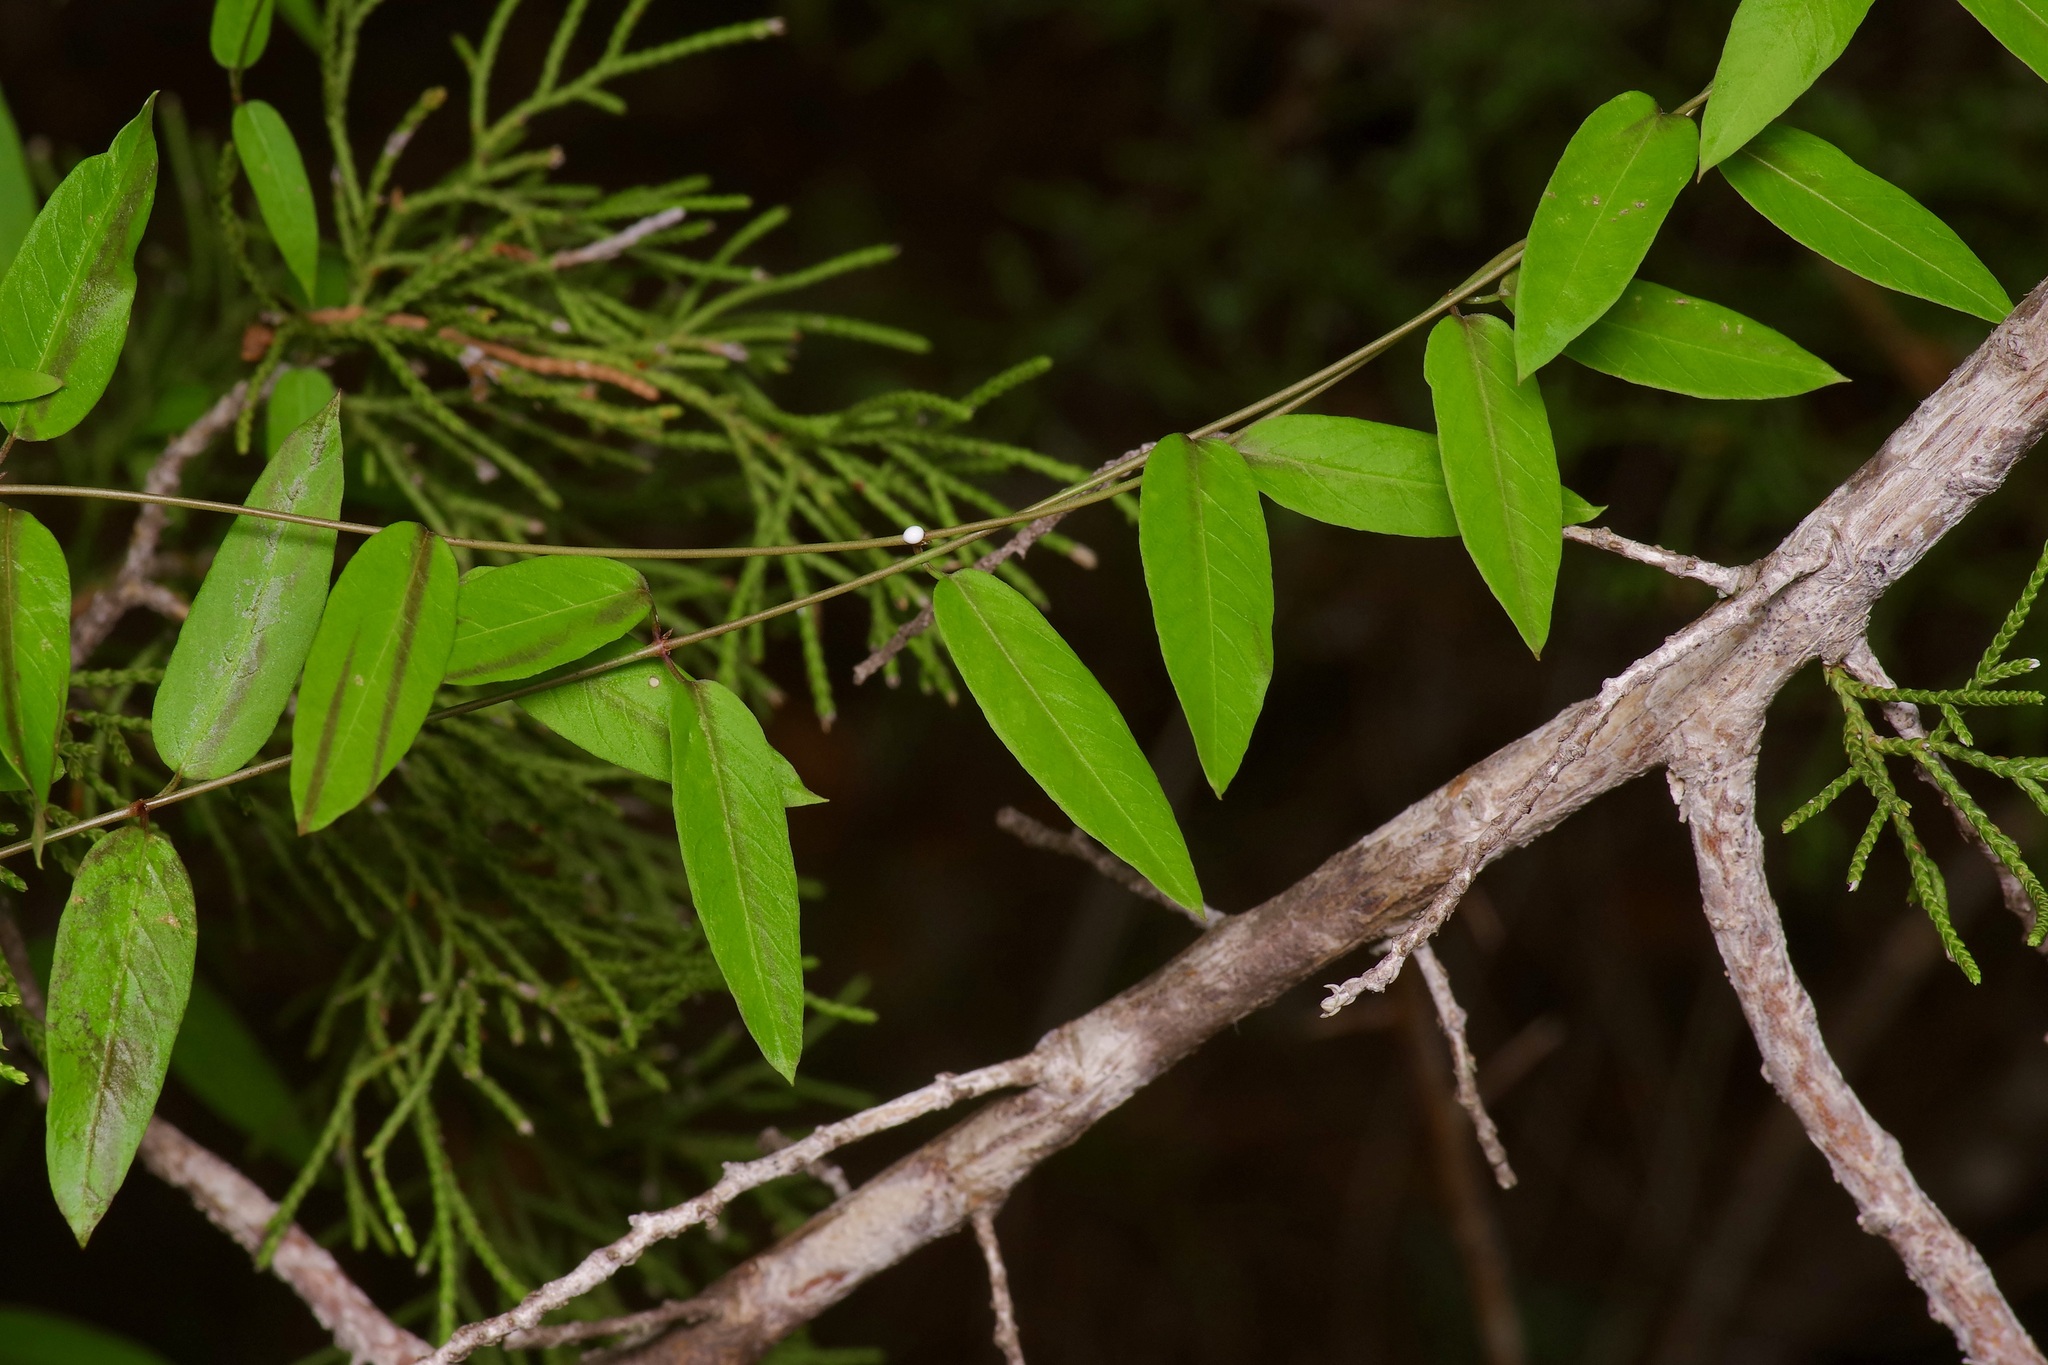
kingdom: Plantae
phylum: Tracheophyta
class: Magnoliopsida
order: Gentianales
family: Apocynaceae
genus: Metastelma
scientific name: Metastelma barbigerum
